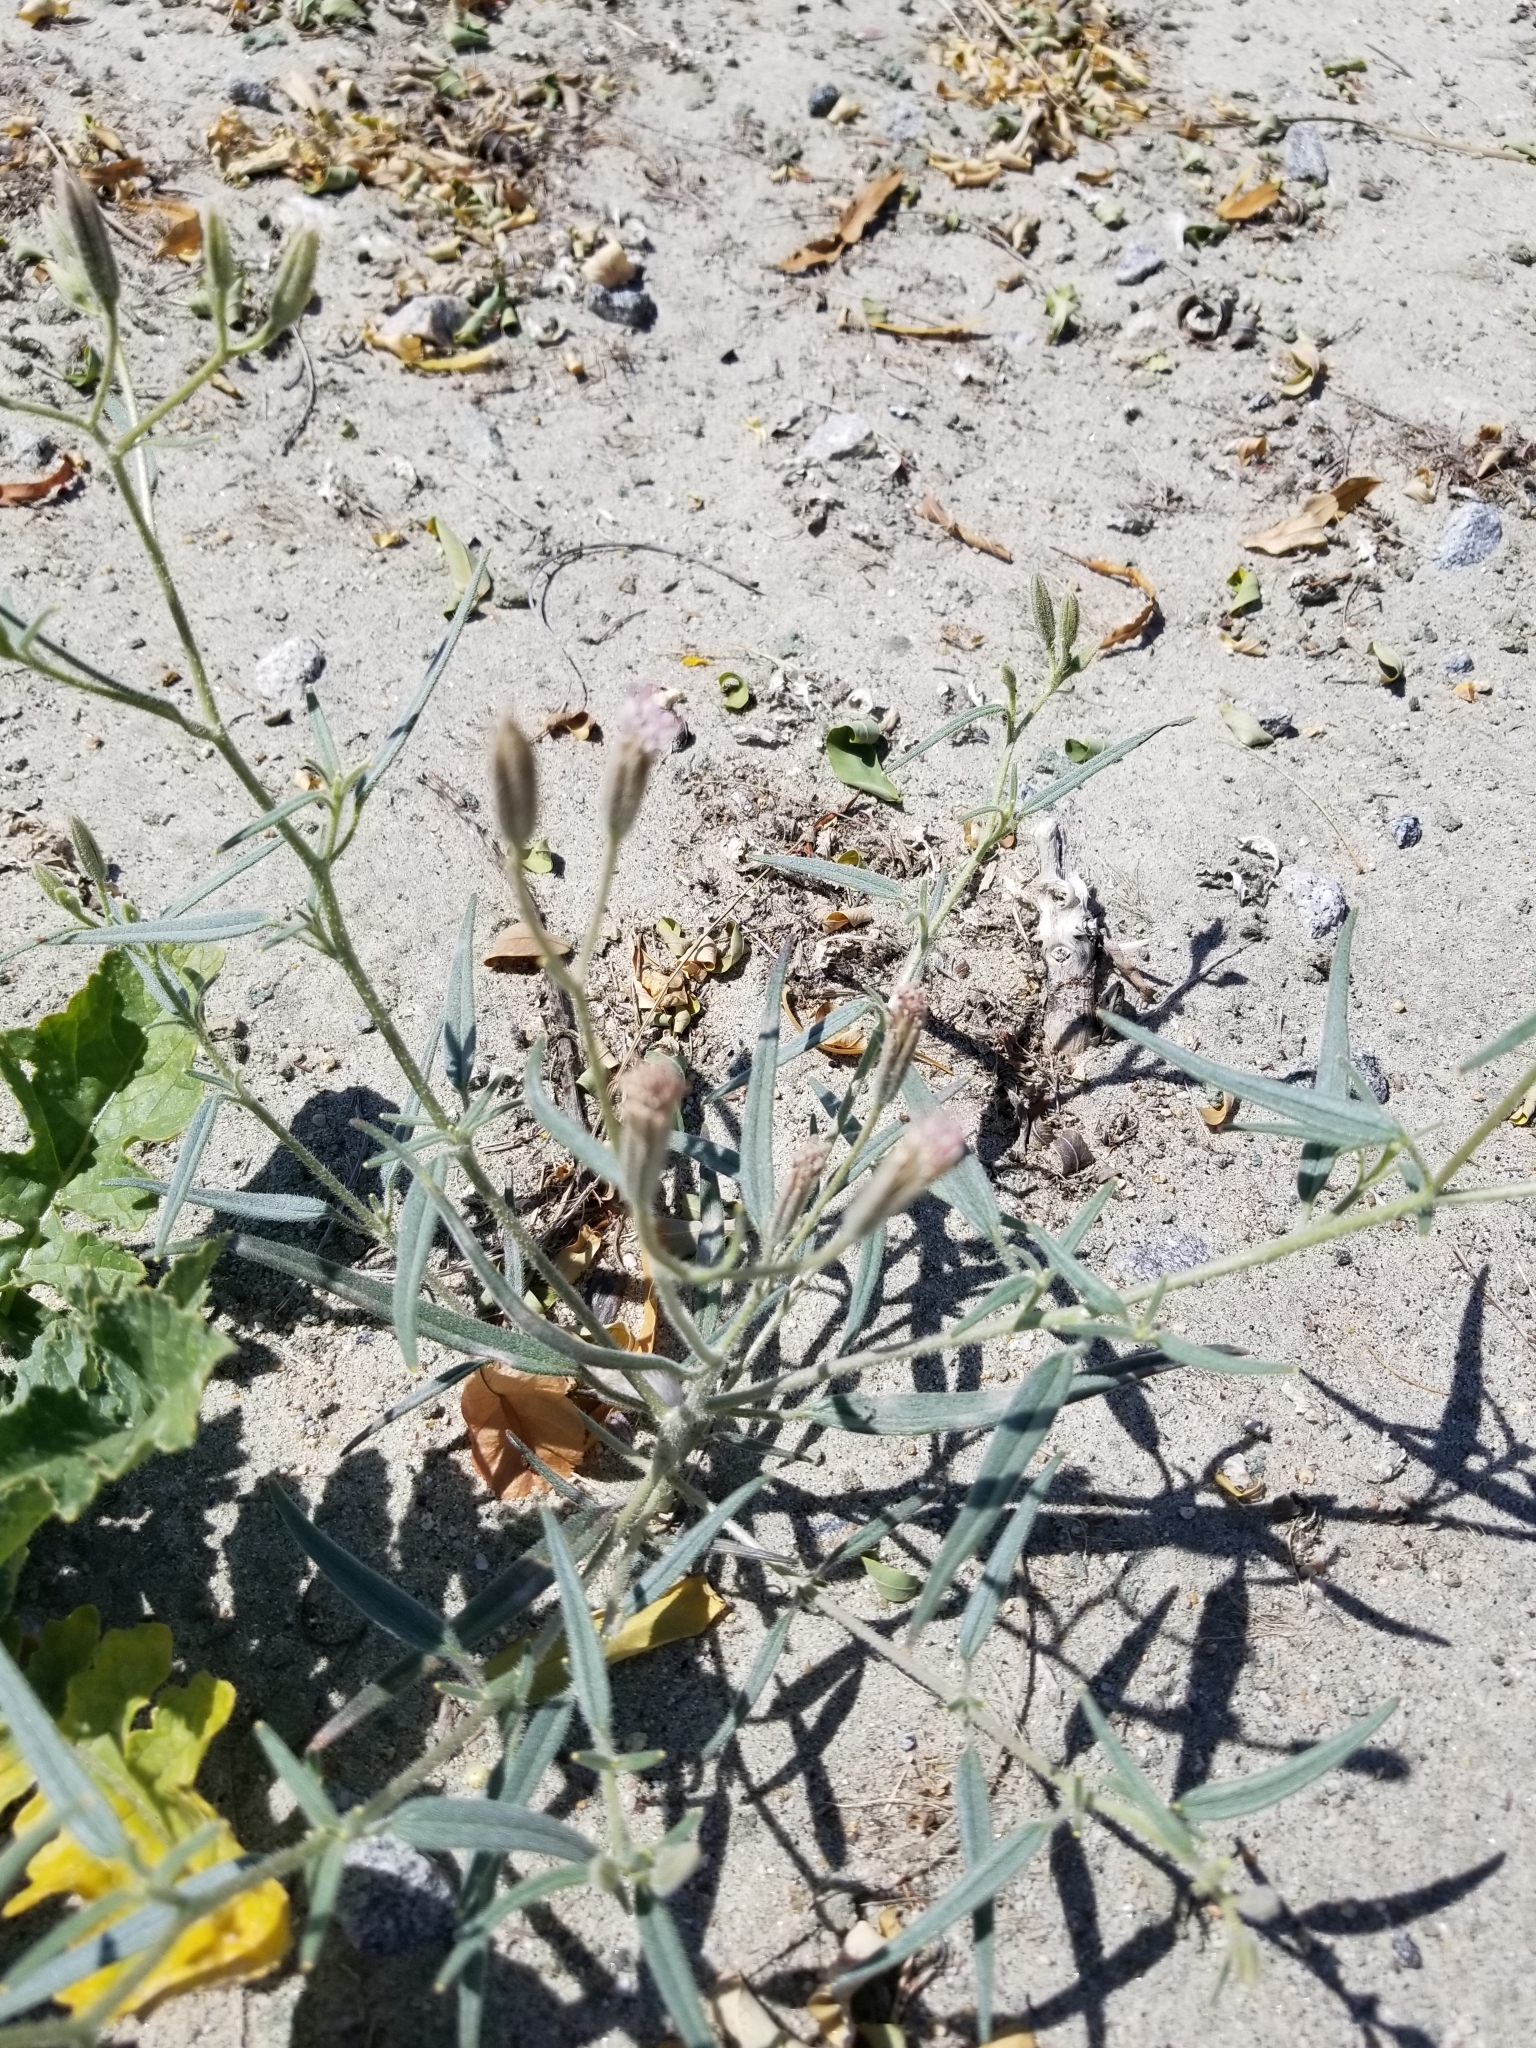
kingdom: Plantae
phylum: Tracheophyta
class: Magnoliopsida
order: Asterales
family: Asteraceae
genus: Palafoxia
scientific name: Palafoxia arida
